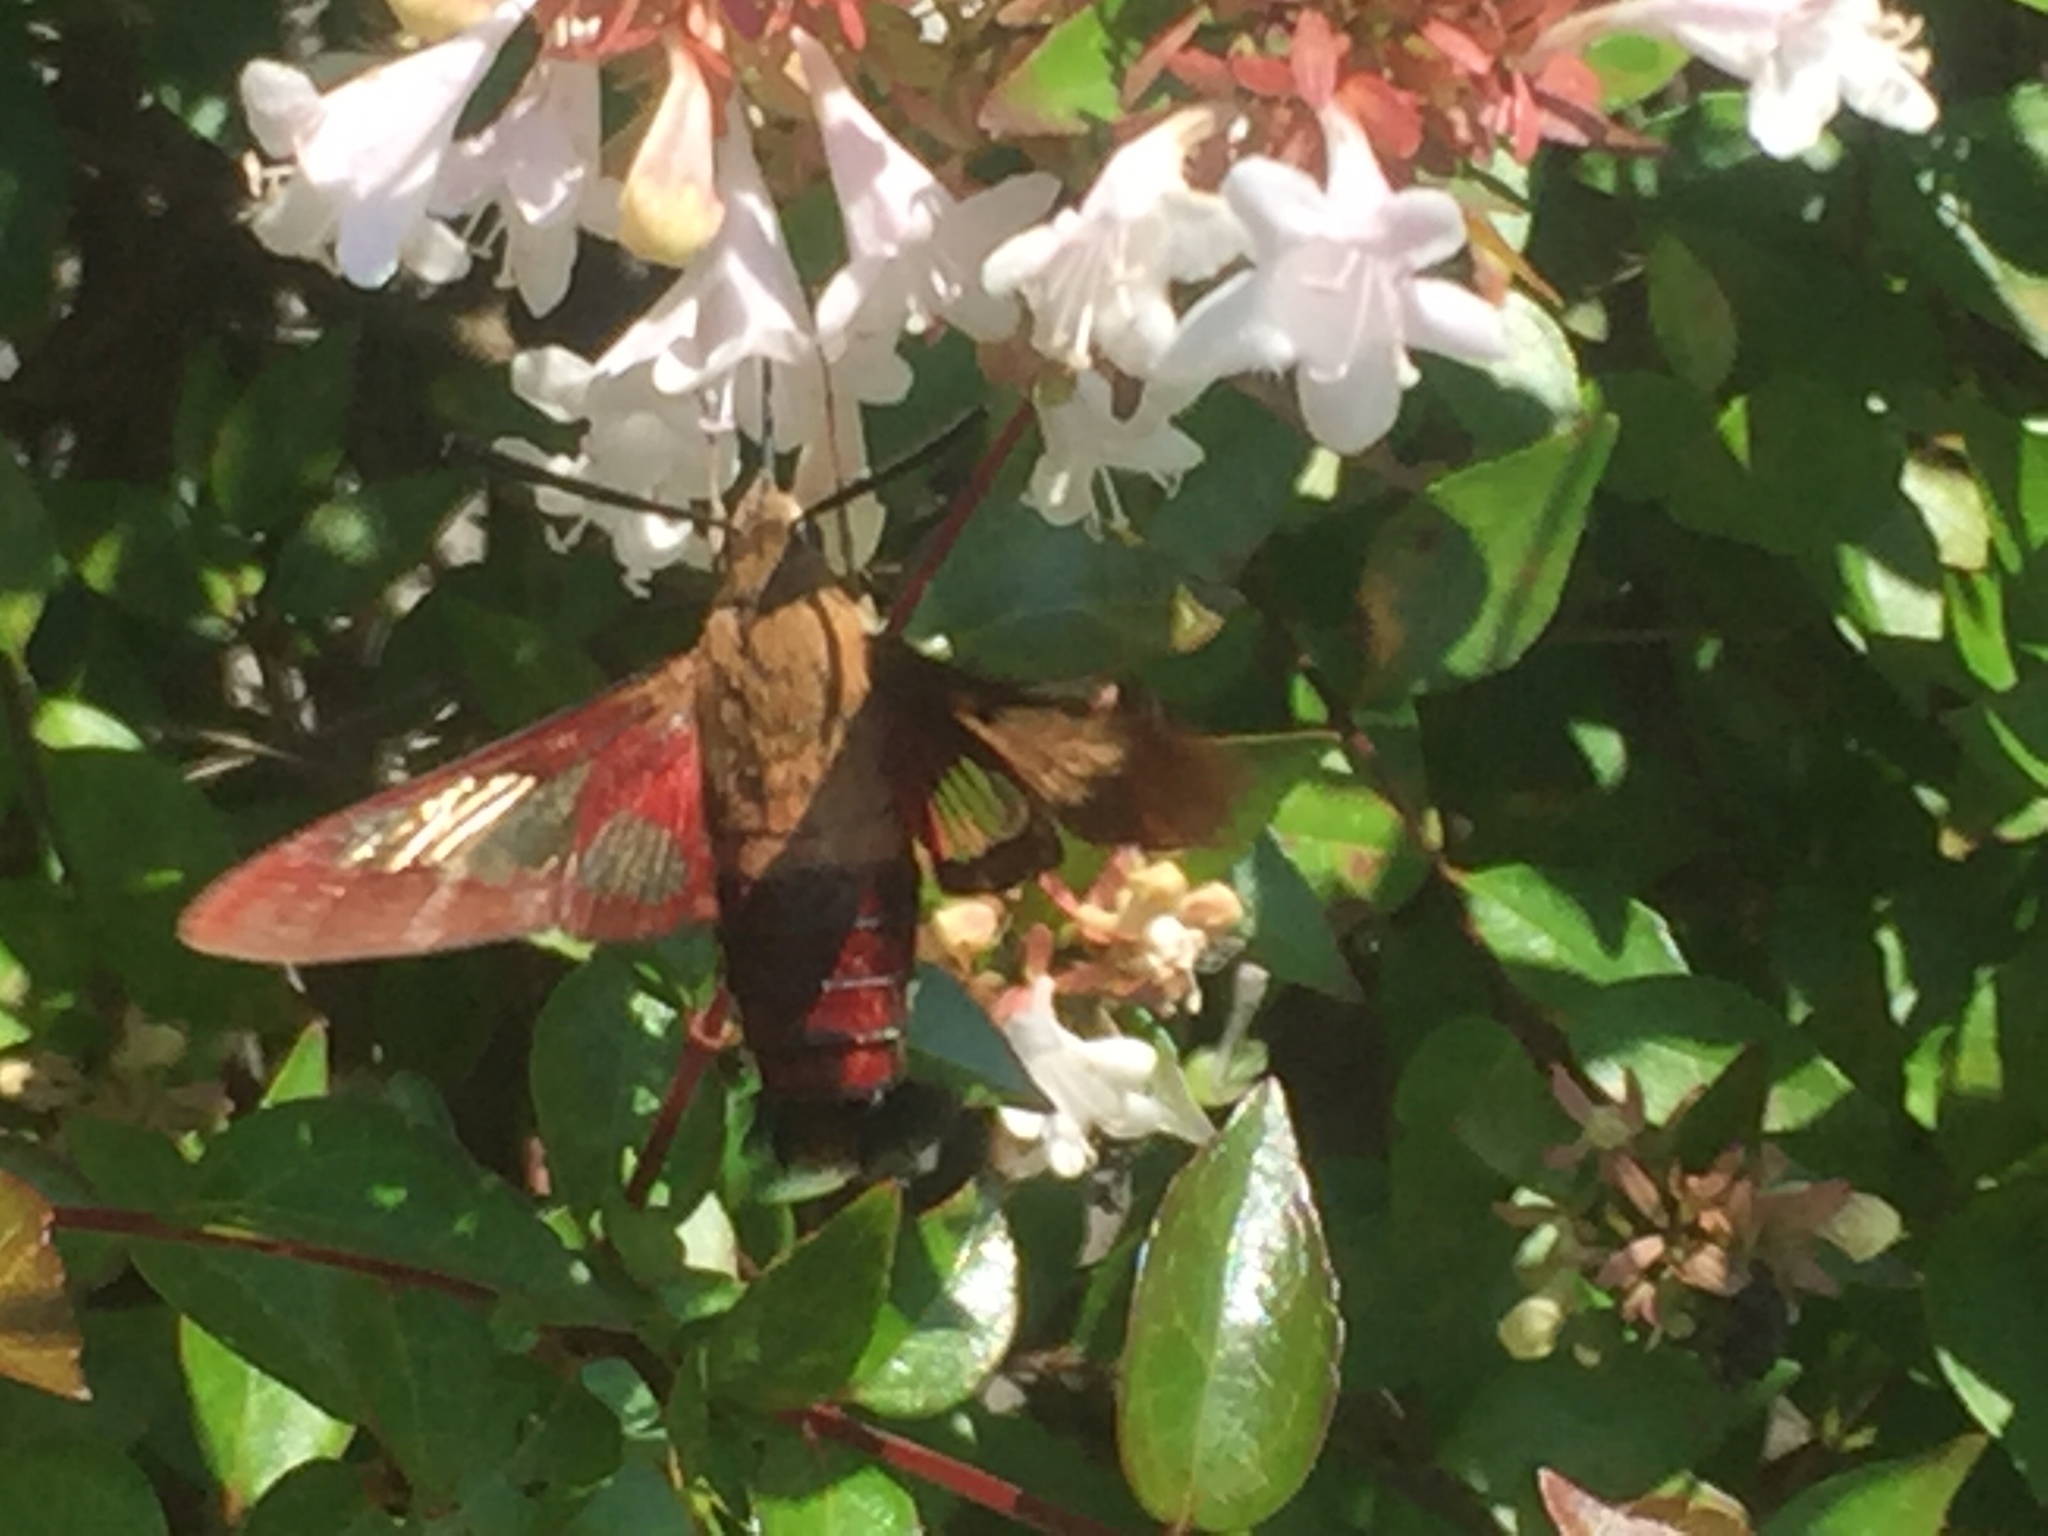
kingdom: Animalia
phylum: Arthropoda
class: Insecta
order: Lepidoptera
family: Sphingidae
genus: Hemaris
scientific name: Hemaris thysbe
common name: Common clear-wing
